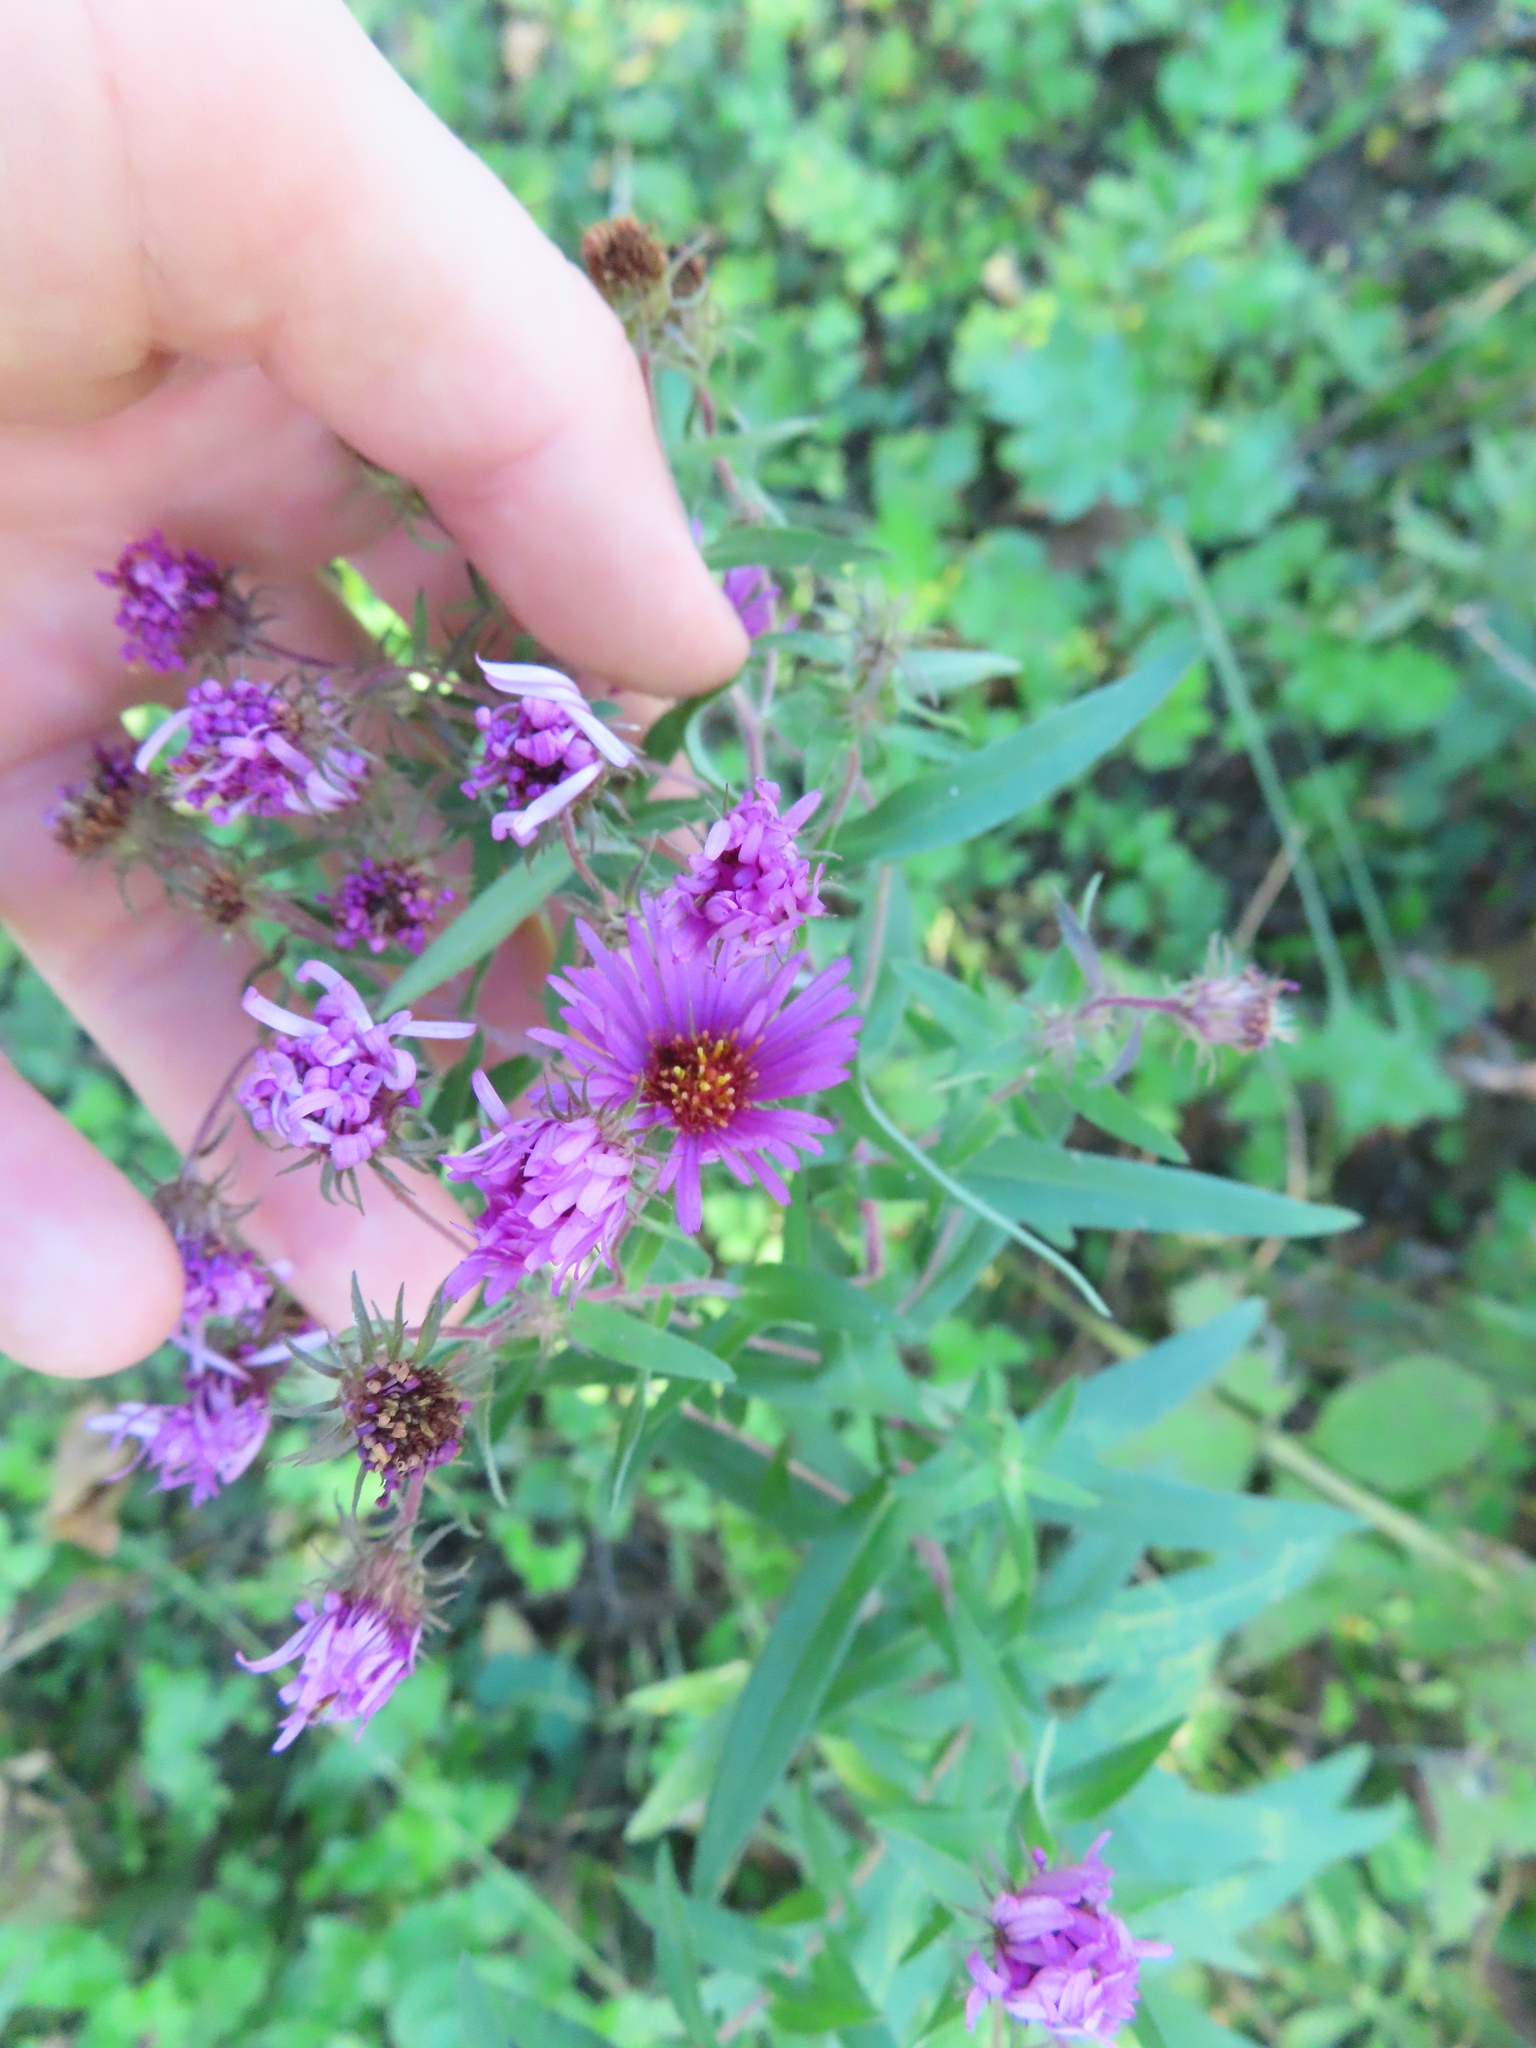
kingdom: Plantae
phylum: Tracheophyta
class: Magnoliopsida
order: Asterales
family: Asteraceae
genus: Symphyotrichum
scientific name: Symphyotrichum novae-angliae
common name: Michaelmas daisy
